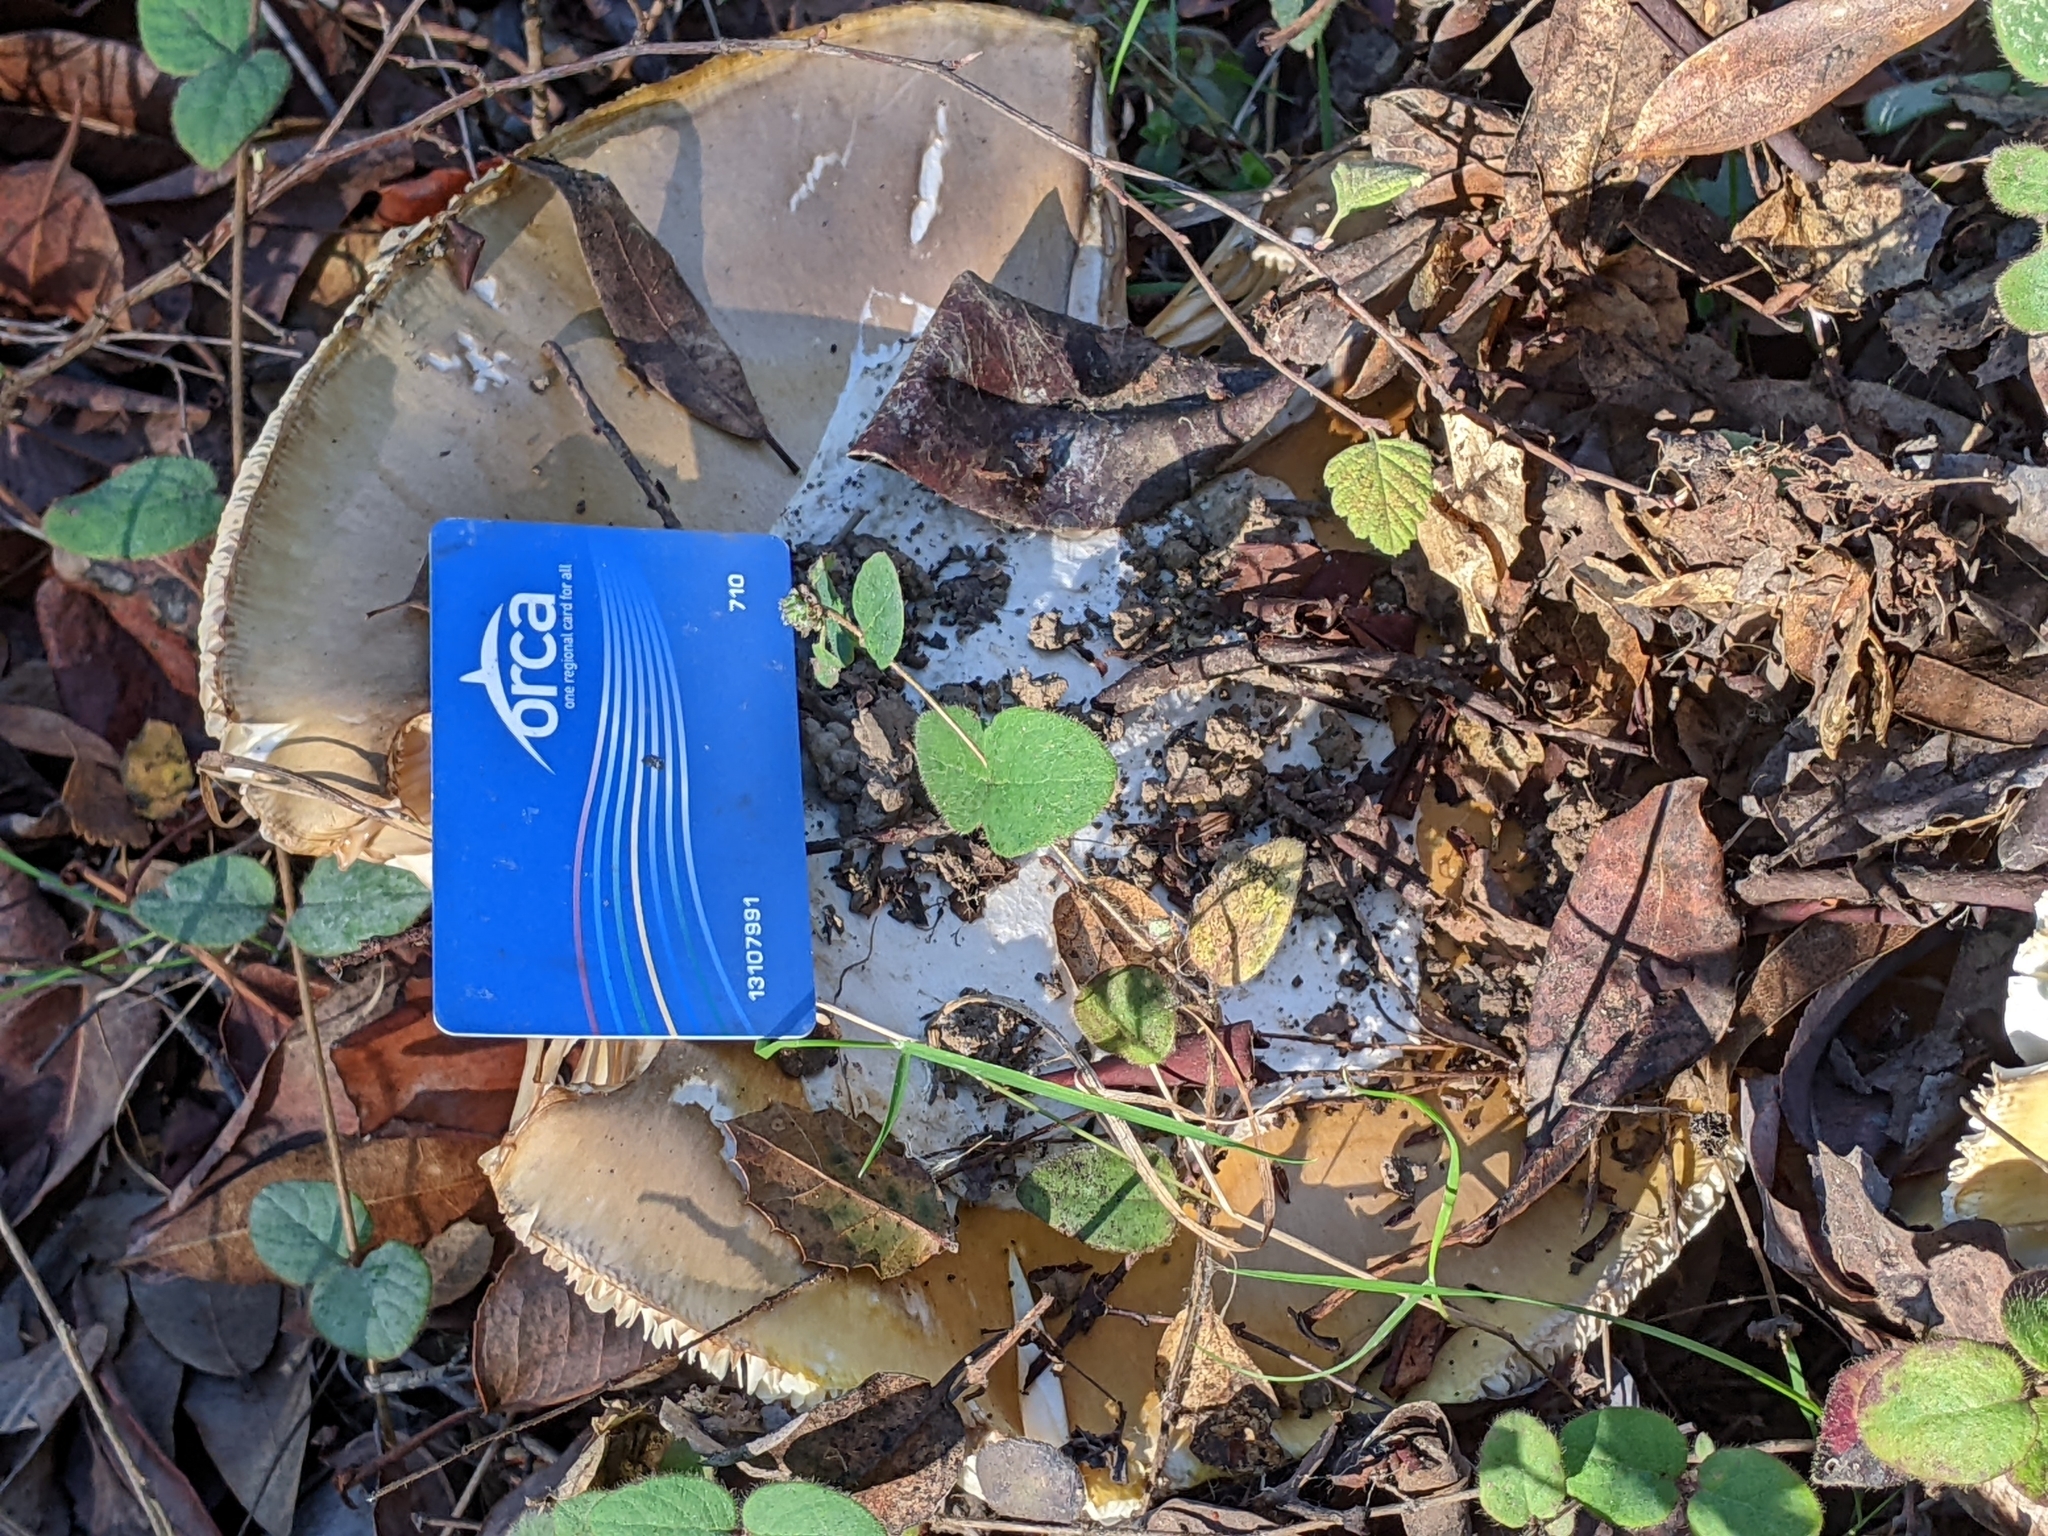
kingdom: Fungi
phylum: Basidiomycota
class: Agaricomycetes
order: Agaricales
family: Amanitaceae
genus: Amanita
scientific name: Amanita calyptroderma
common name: Coccora
